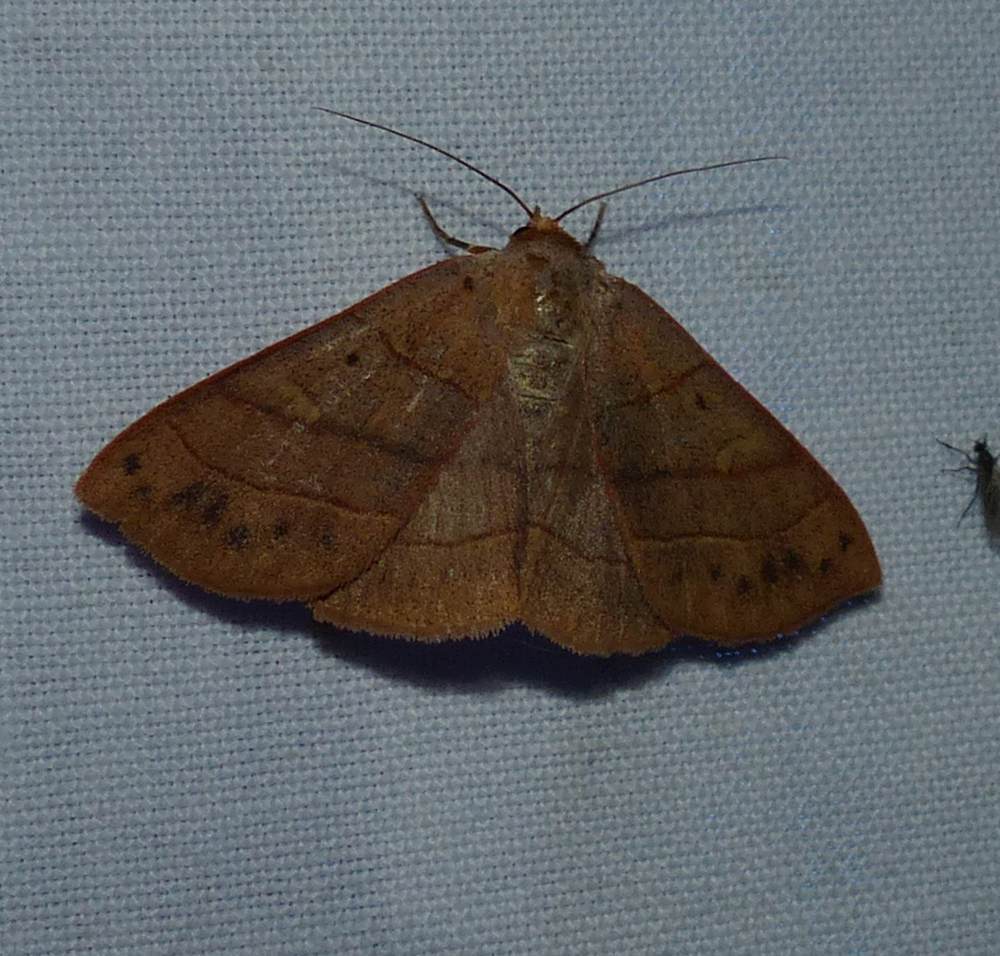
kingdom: Animalia
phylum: Arthropoda
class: Insecta
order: Lepidoptera
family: Erebidae
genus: Panopoda
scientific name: Panopoda rufimargo
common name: Red-lined panopoda moth
